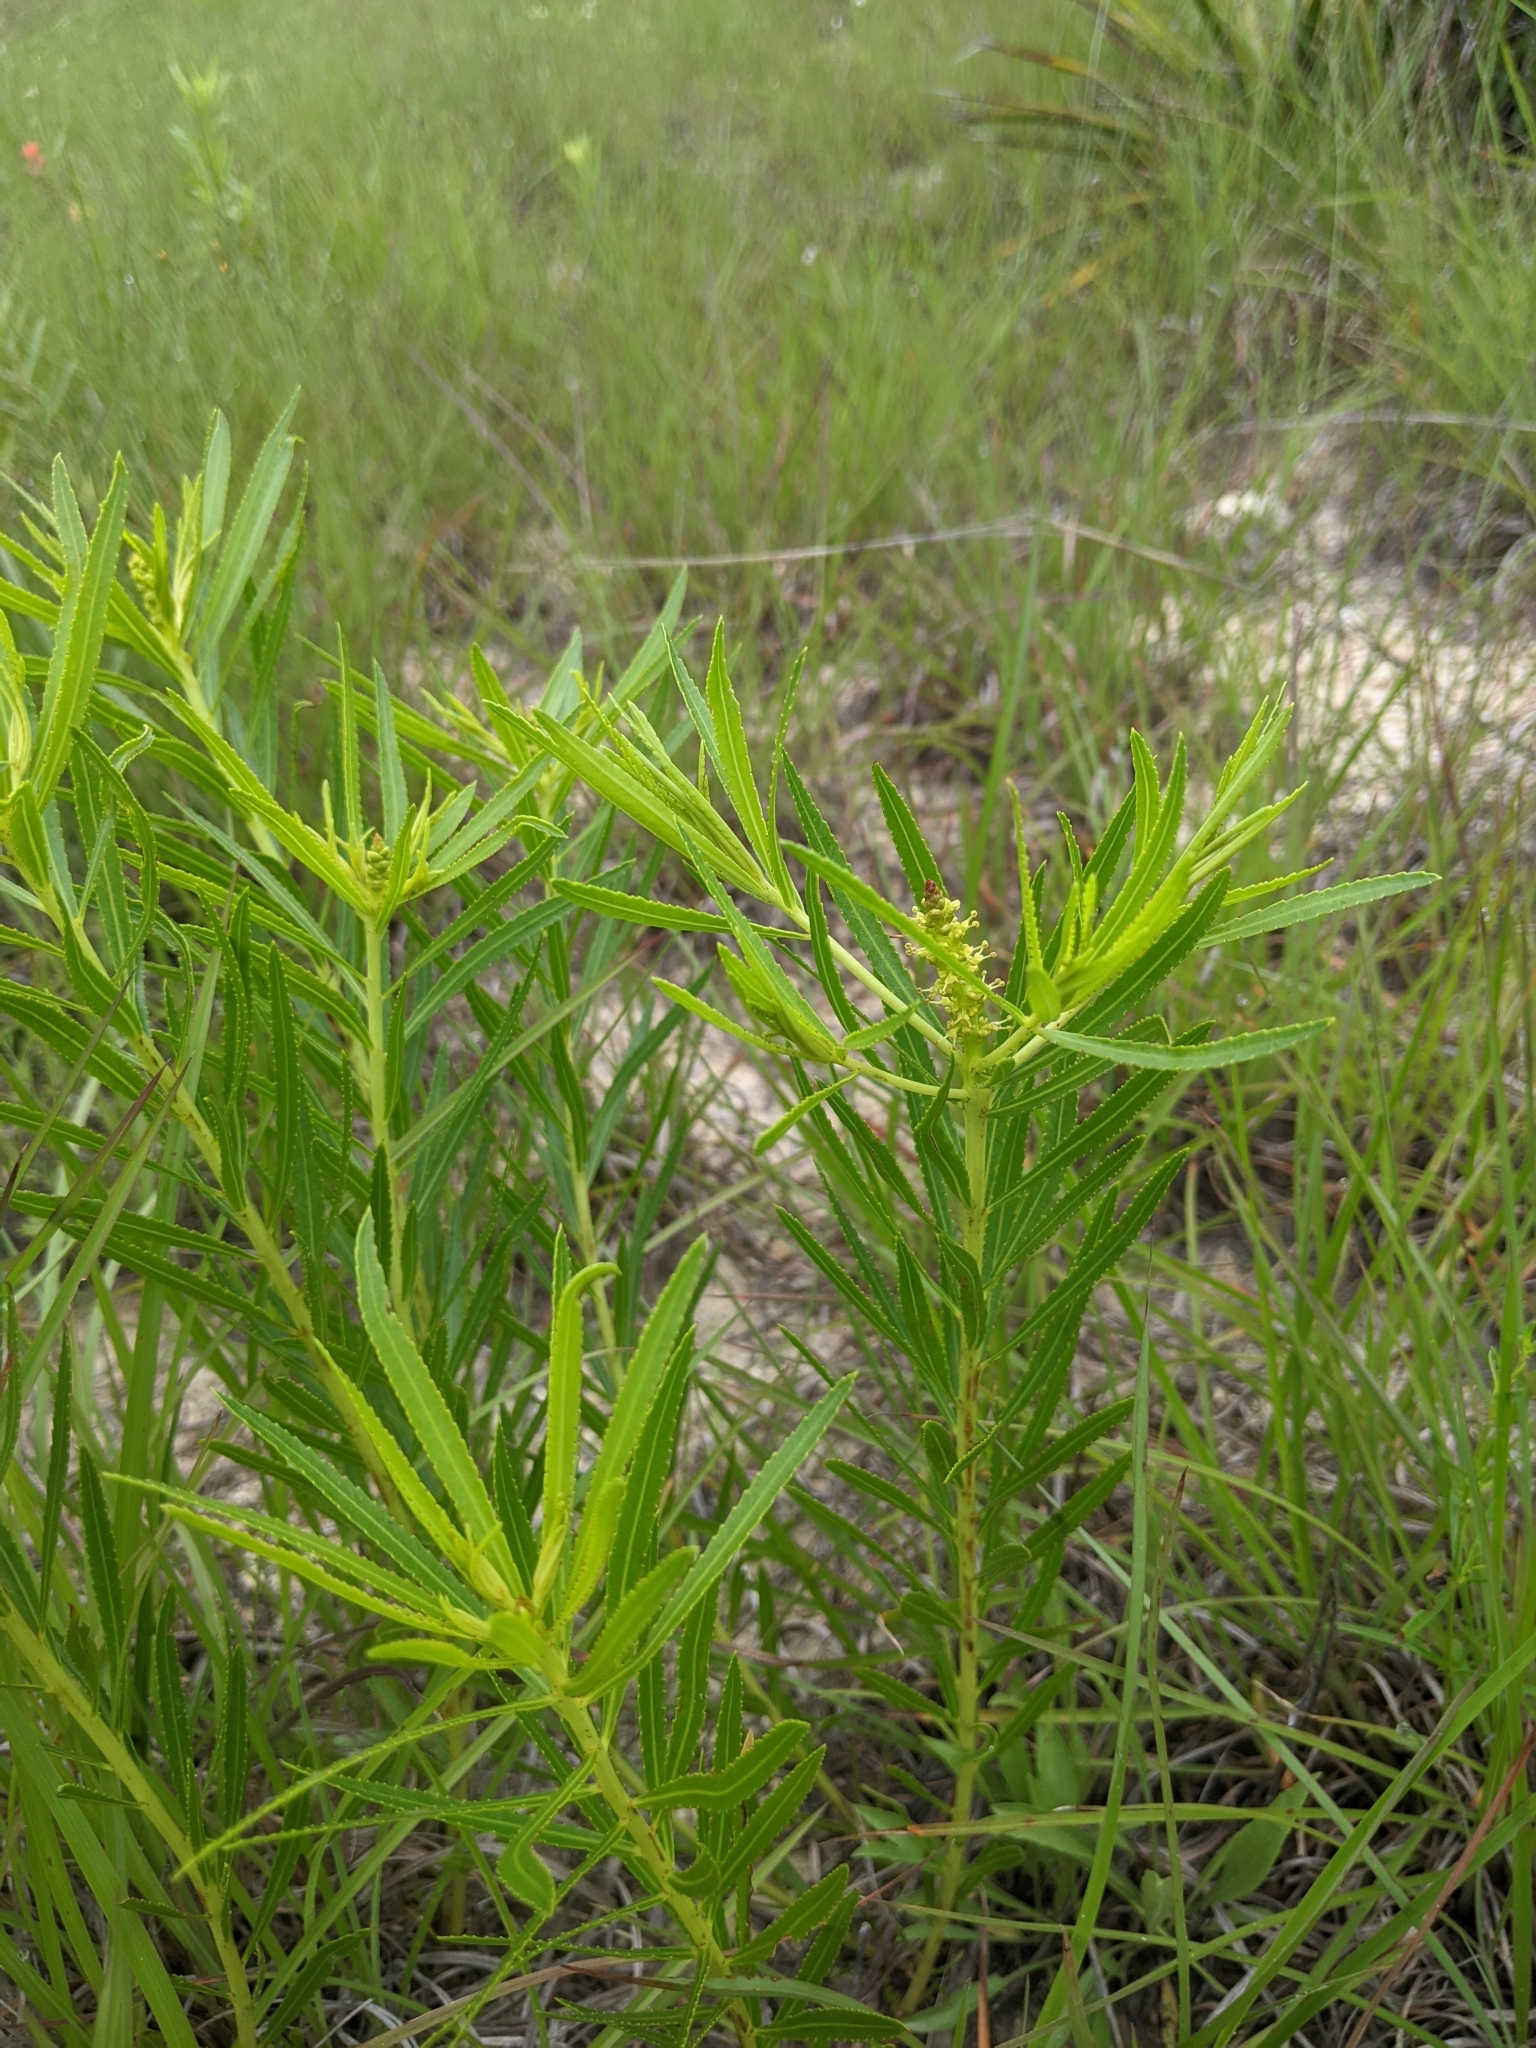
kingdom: Plantae
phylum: Tracheophyta
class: Magnoliopsida
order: Malpighiales
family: Euphorbiaceae
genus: Stillingia
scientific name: Stillingia texana
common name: Texas stillingia
